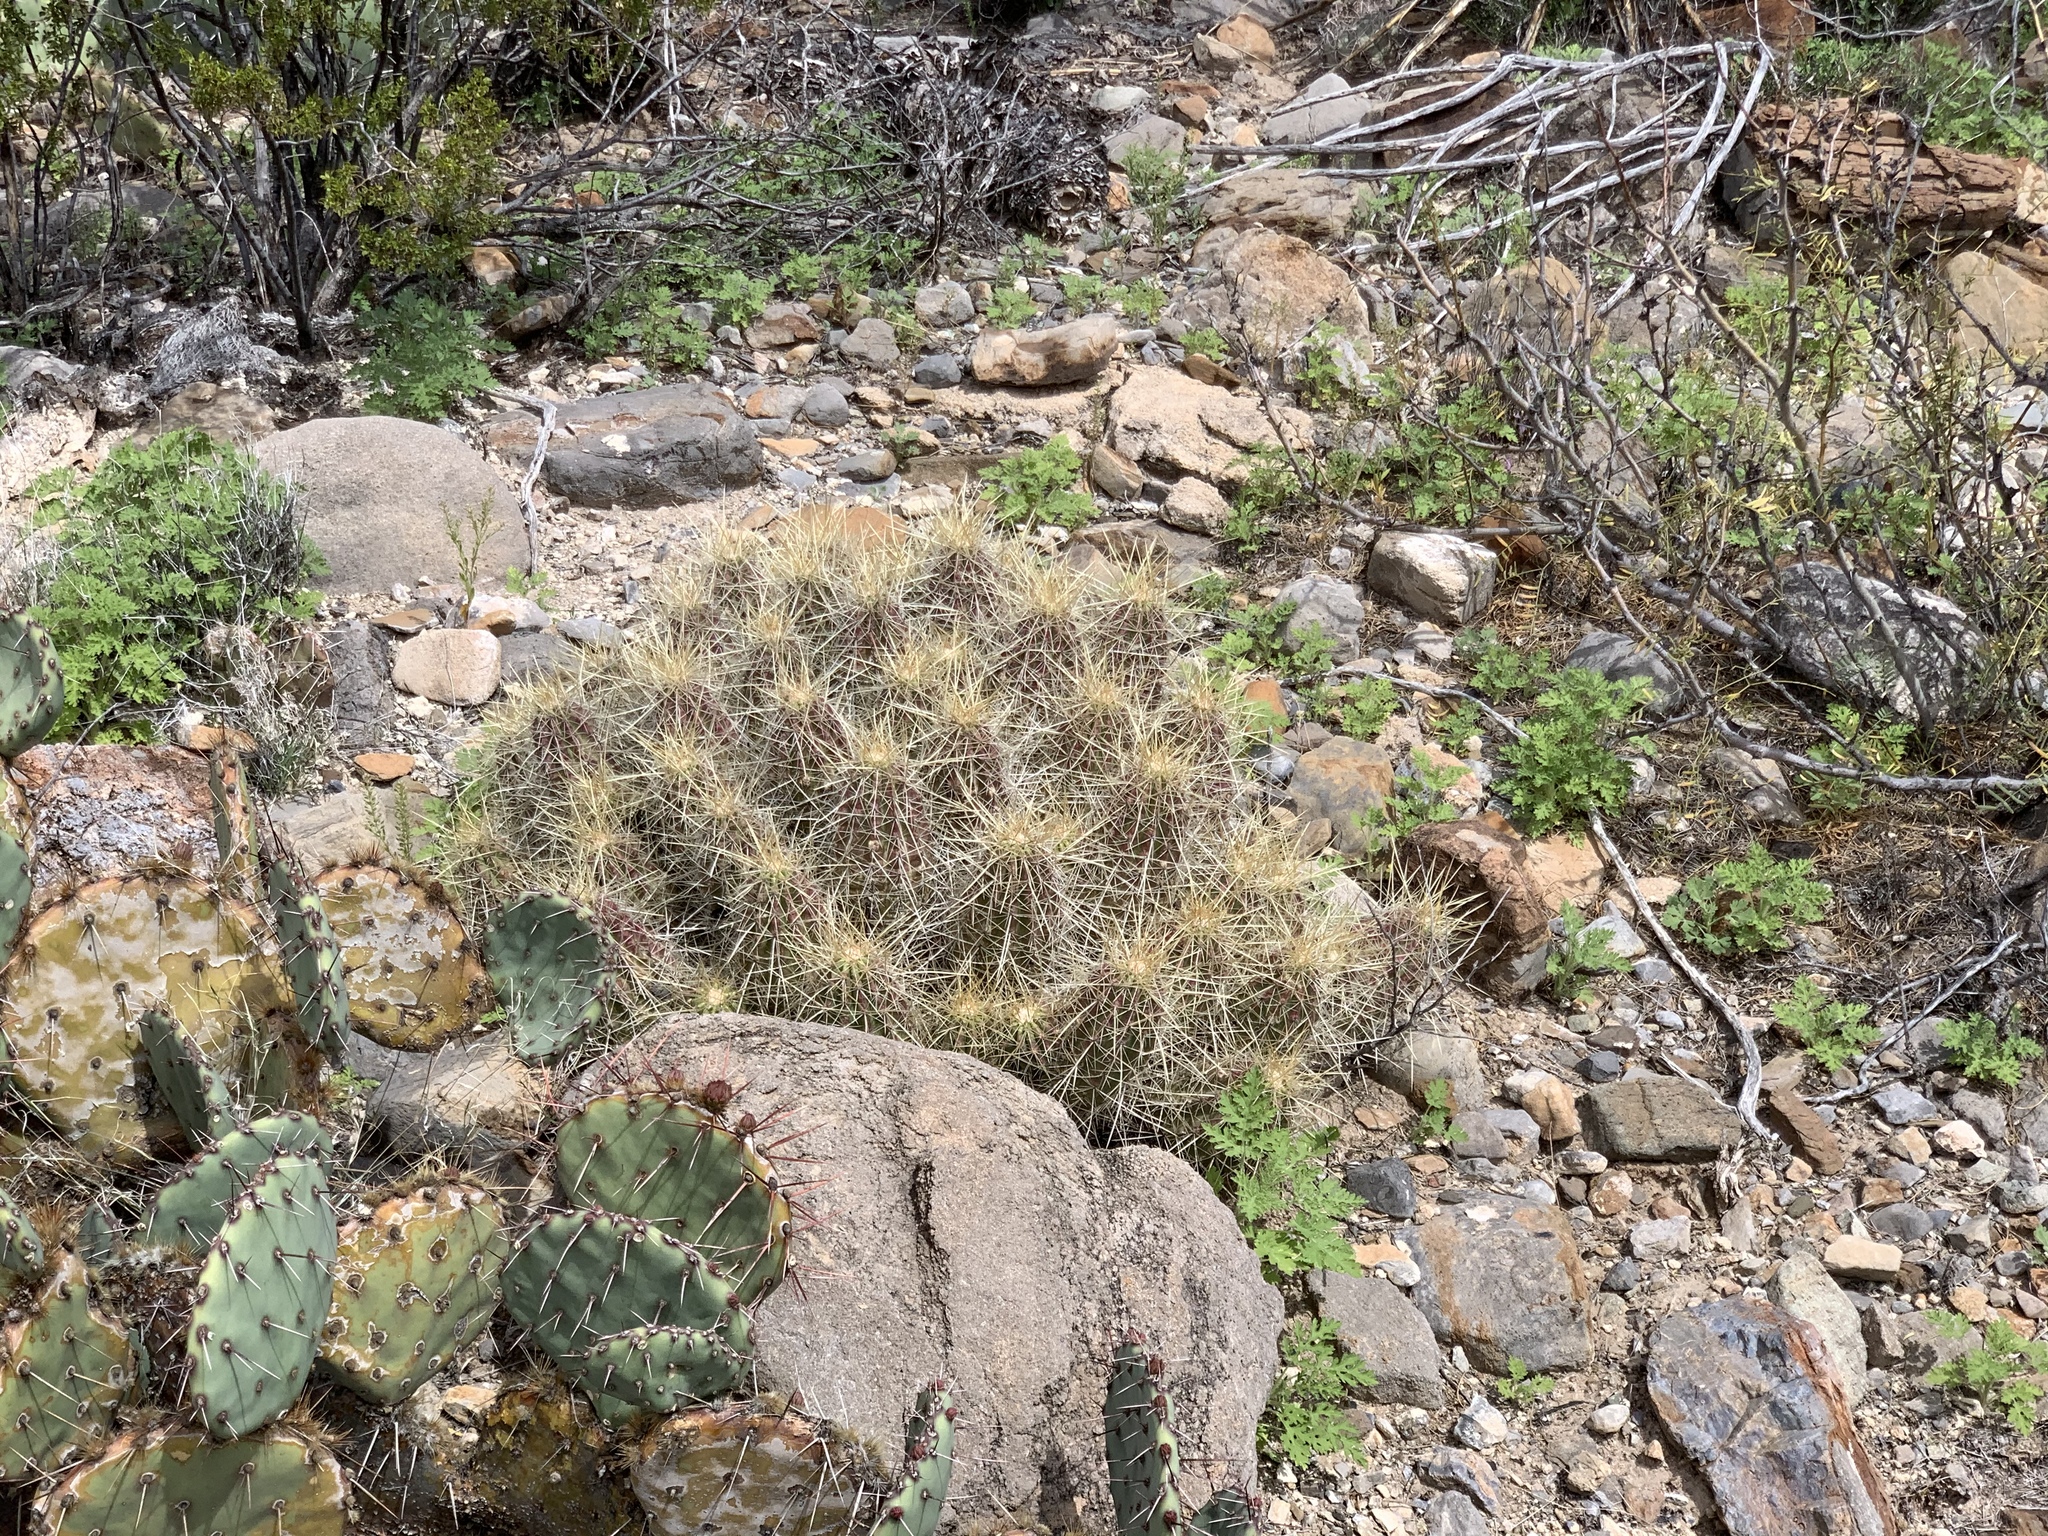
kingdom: Plantae
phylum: Tracheophyta
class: Magnoliopsida
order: Caryophyllales
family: Cactaceae
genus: Echinocereus
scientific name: Echinocereus stramineus
